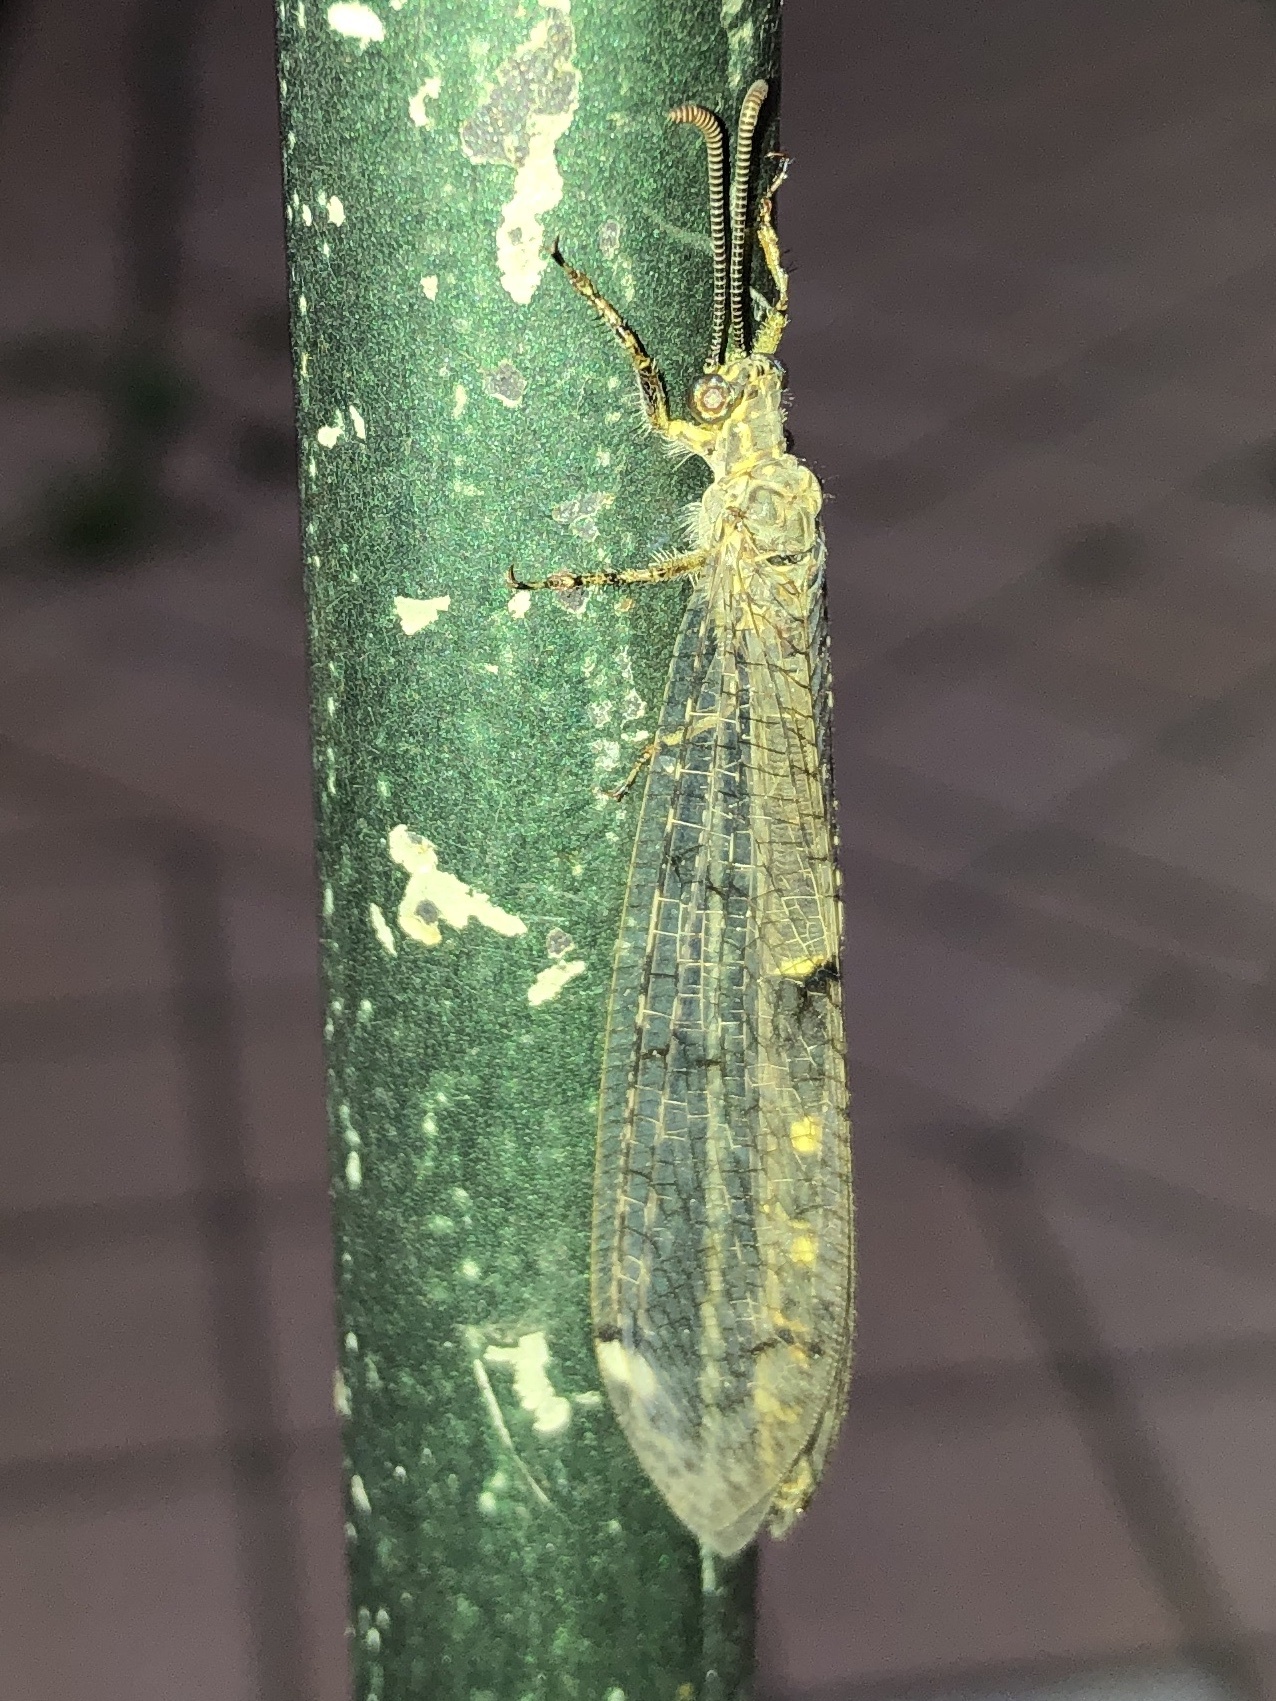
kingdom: Animalia
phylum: Arthropoda
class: Insecta
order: Neuroptera
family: Myrmeleontidae
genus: Distoleon
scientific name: Distoleon tetragrammicus
